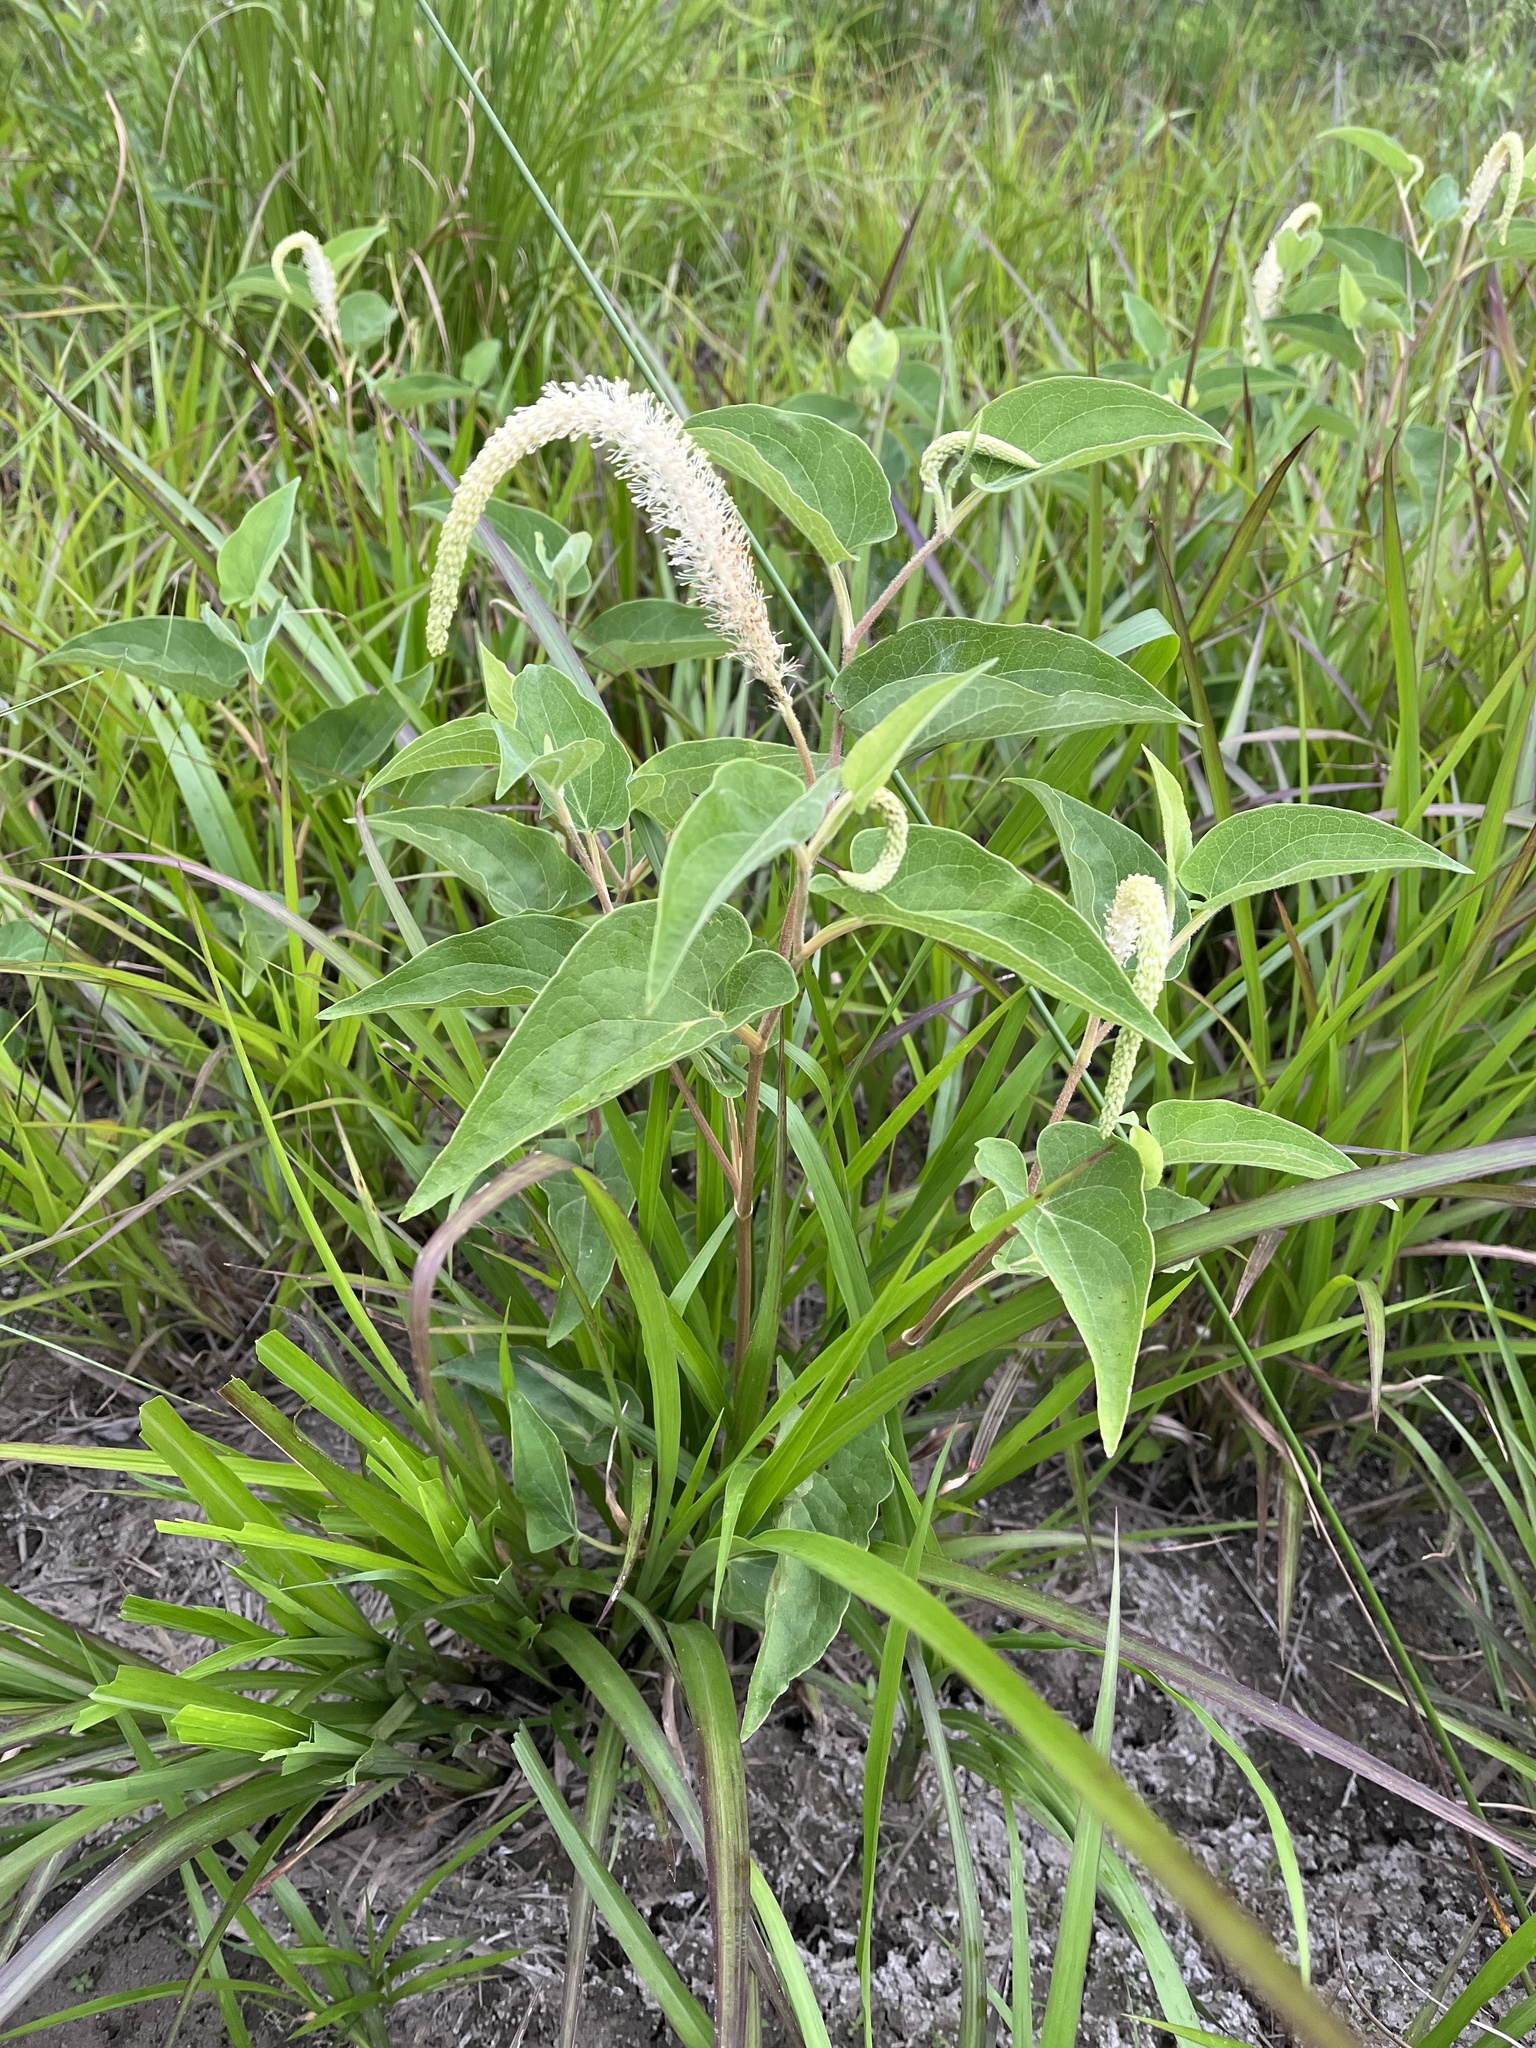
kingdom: Plantae
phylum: Tracheophyta
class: Magnoliopsida
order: Piperales
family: Saururaceae
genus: Saururus
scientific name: Saururus cernuus
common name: Lizard's-tail
